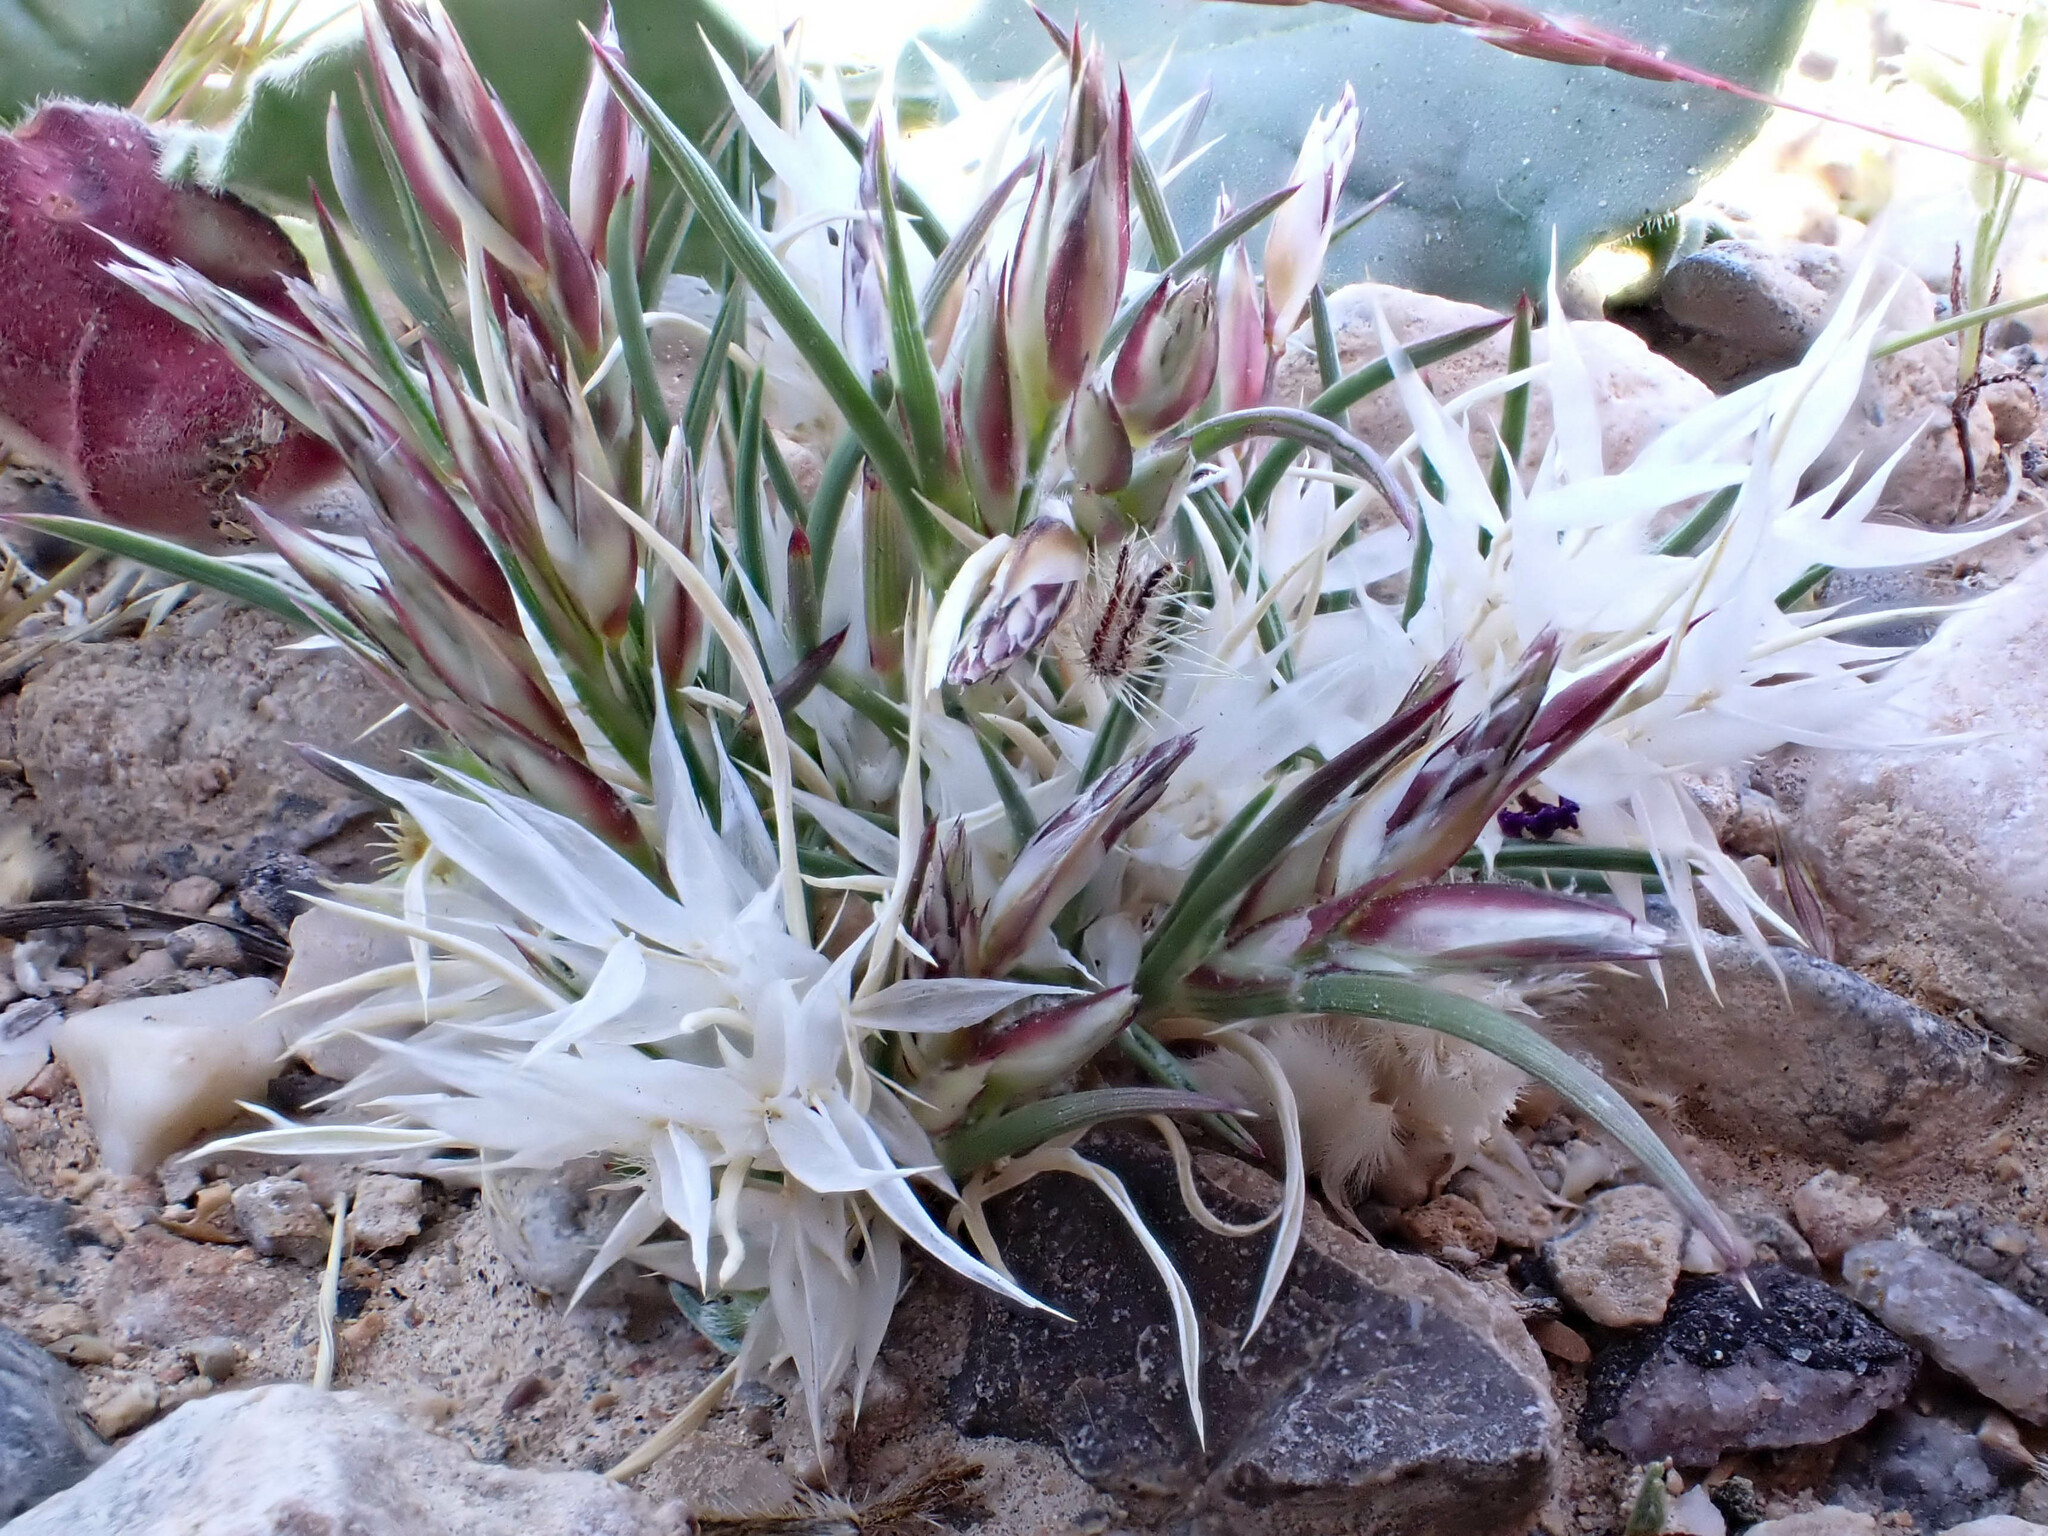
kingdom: Plantae
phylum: Tracheophyta
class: Liliopsida
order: Poales
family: Poaceae
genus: Dasyochloa
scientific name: Dasyochloa pulchella
